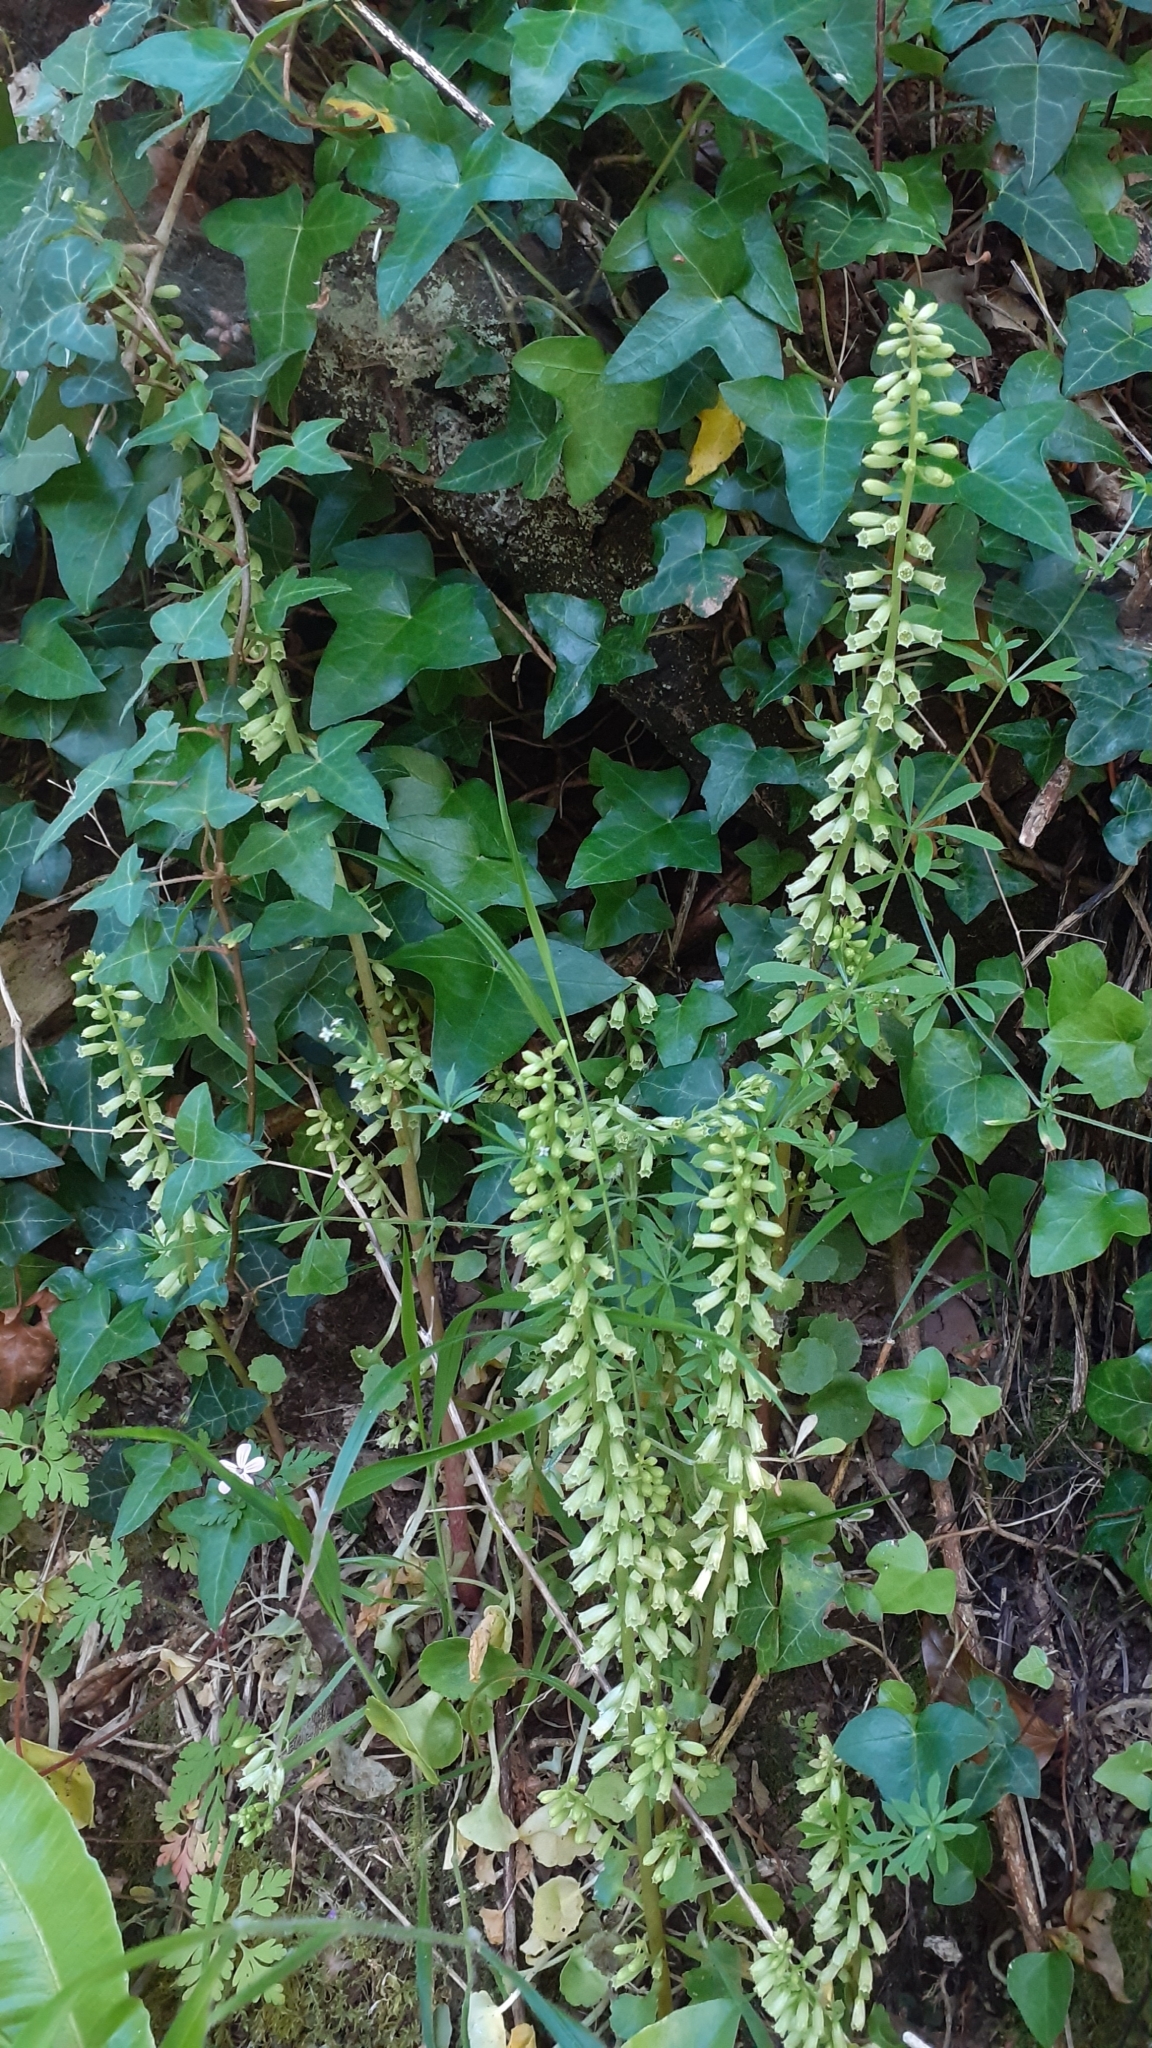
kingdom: Plantae
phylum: Tracheophyta
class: Magnoliopsida
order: Saxifragales
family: Crassulaceae
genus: Umbilicus
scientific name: Umbilicus rupestris
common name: Navelwort
